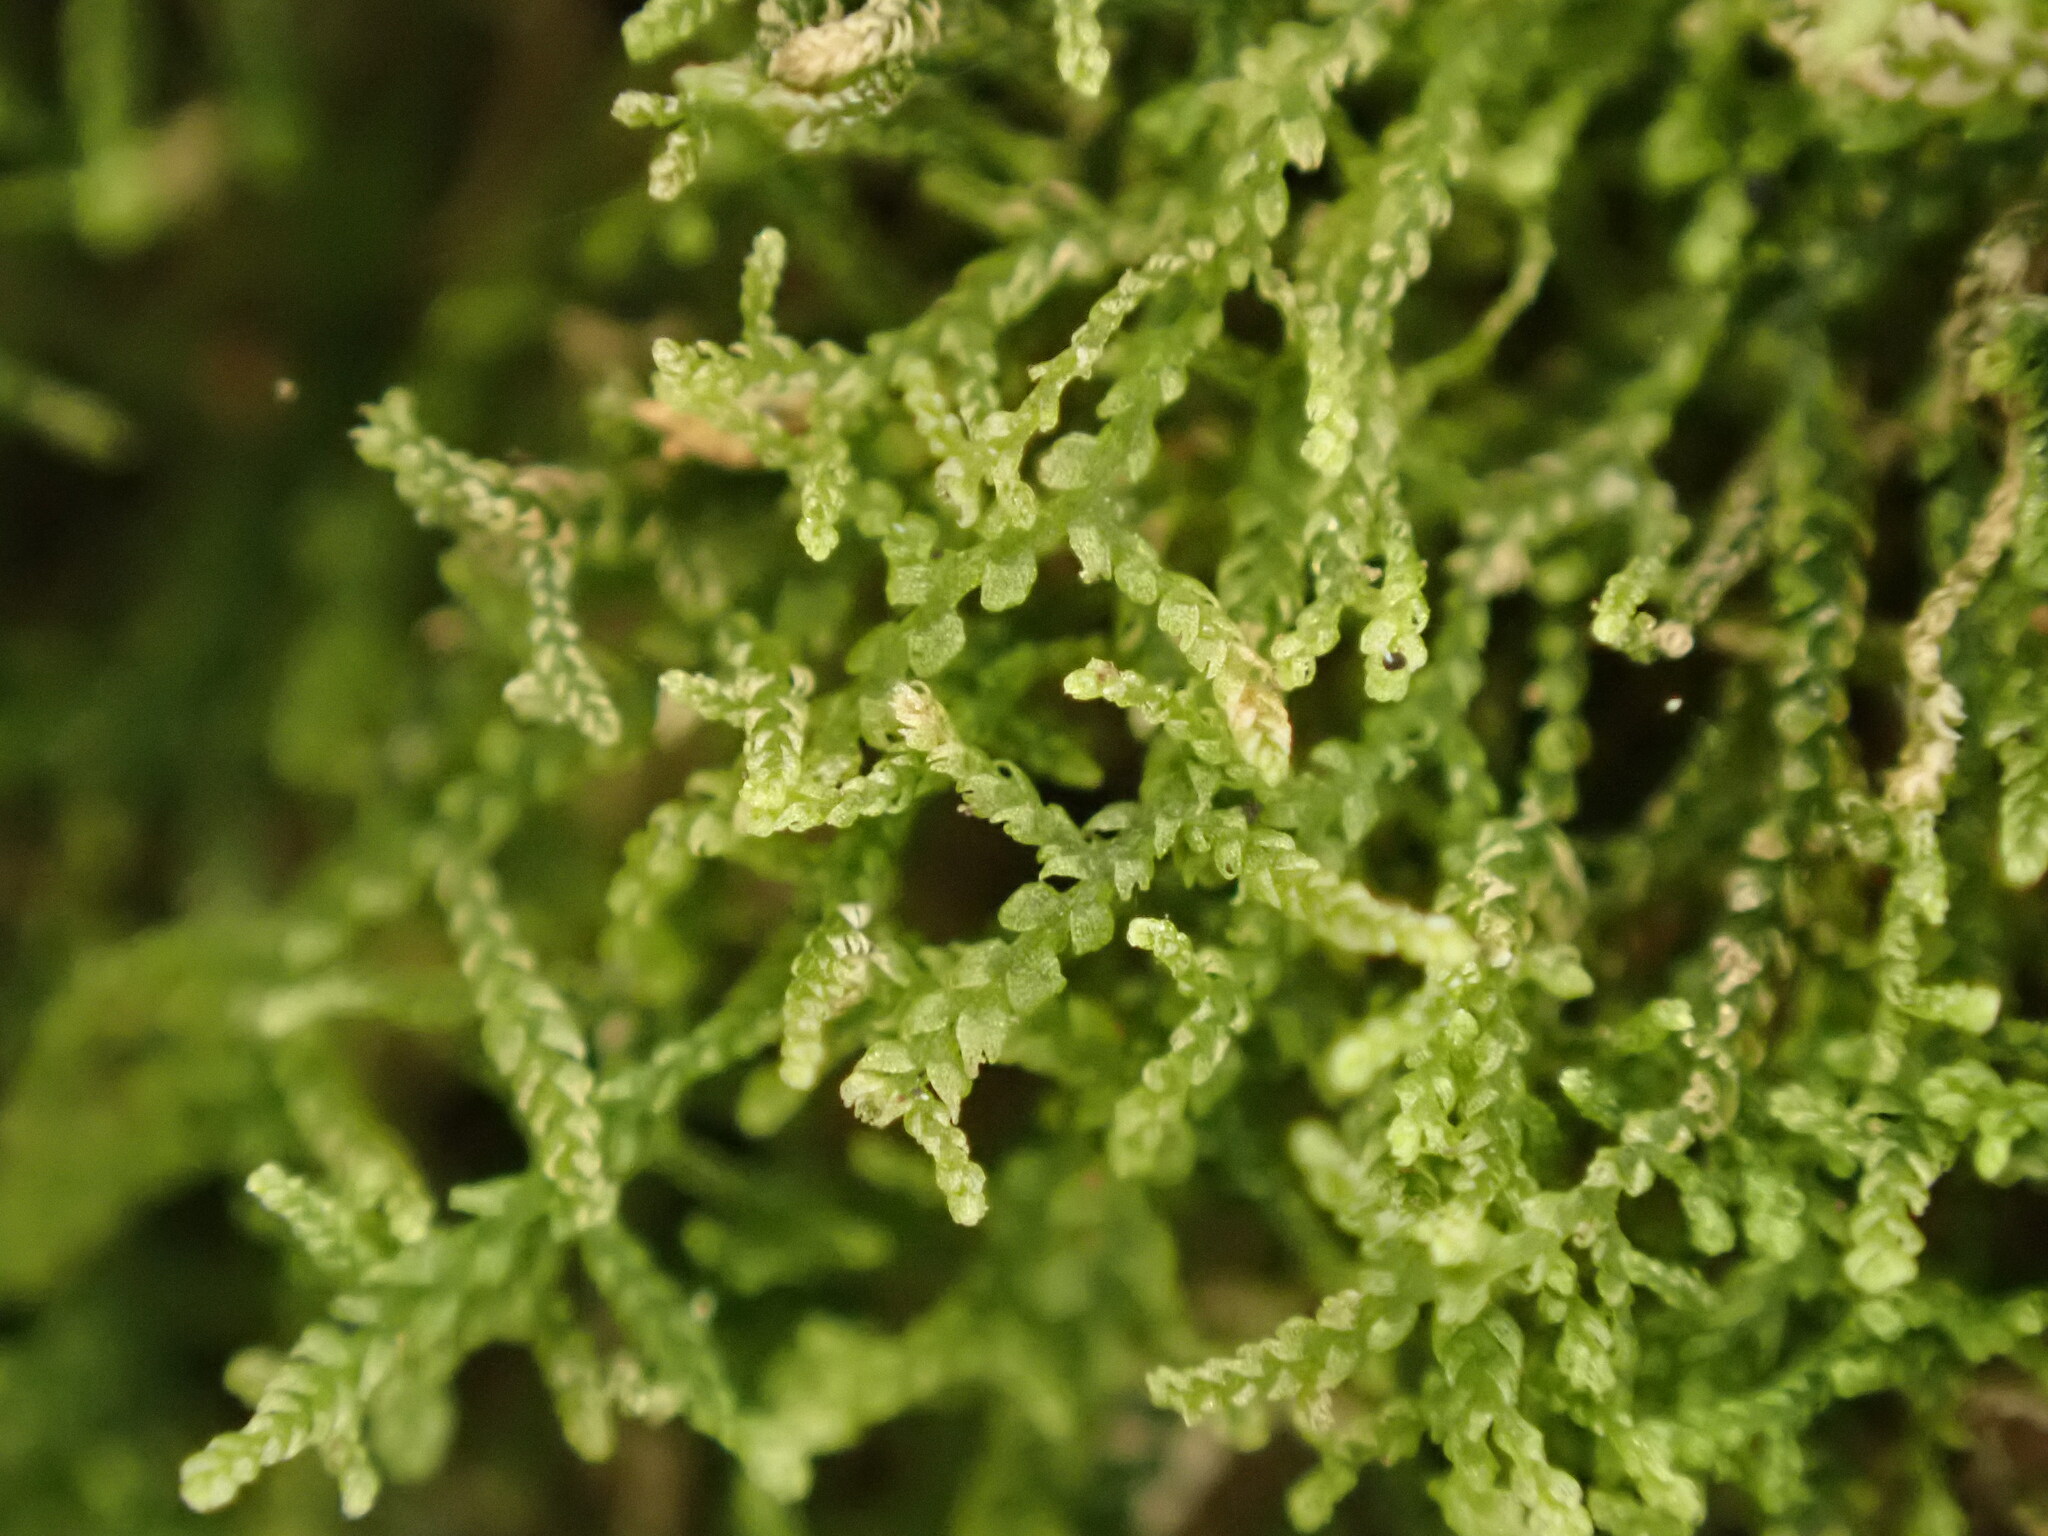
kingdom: Plantae
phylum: Marchantiophyta
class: Jungermanniopsida
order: Jungermanniales
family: Lepidoziaceae
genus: Lepidozia
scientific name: Lepidozia reptans
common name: Creeping fingerwort
